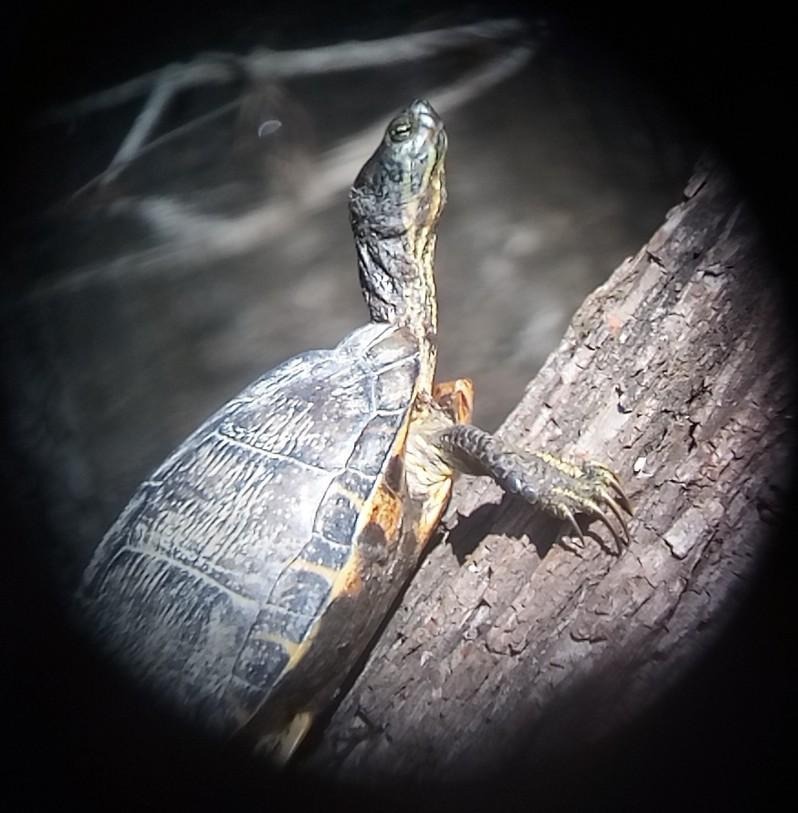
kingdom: Animalia
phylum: Chordata
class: Testudines
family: Emydidae
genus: Trachemys
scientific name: Trachemys scripta
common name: Slider
